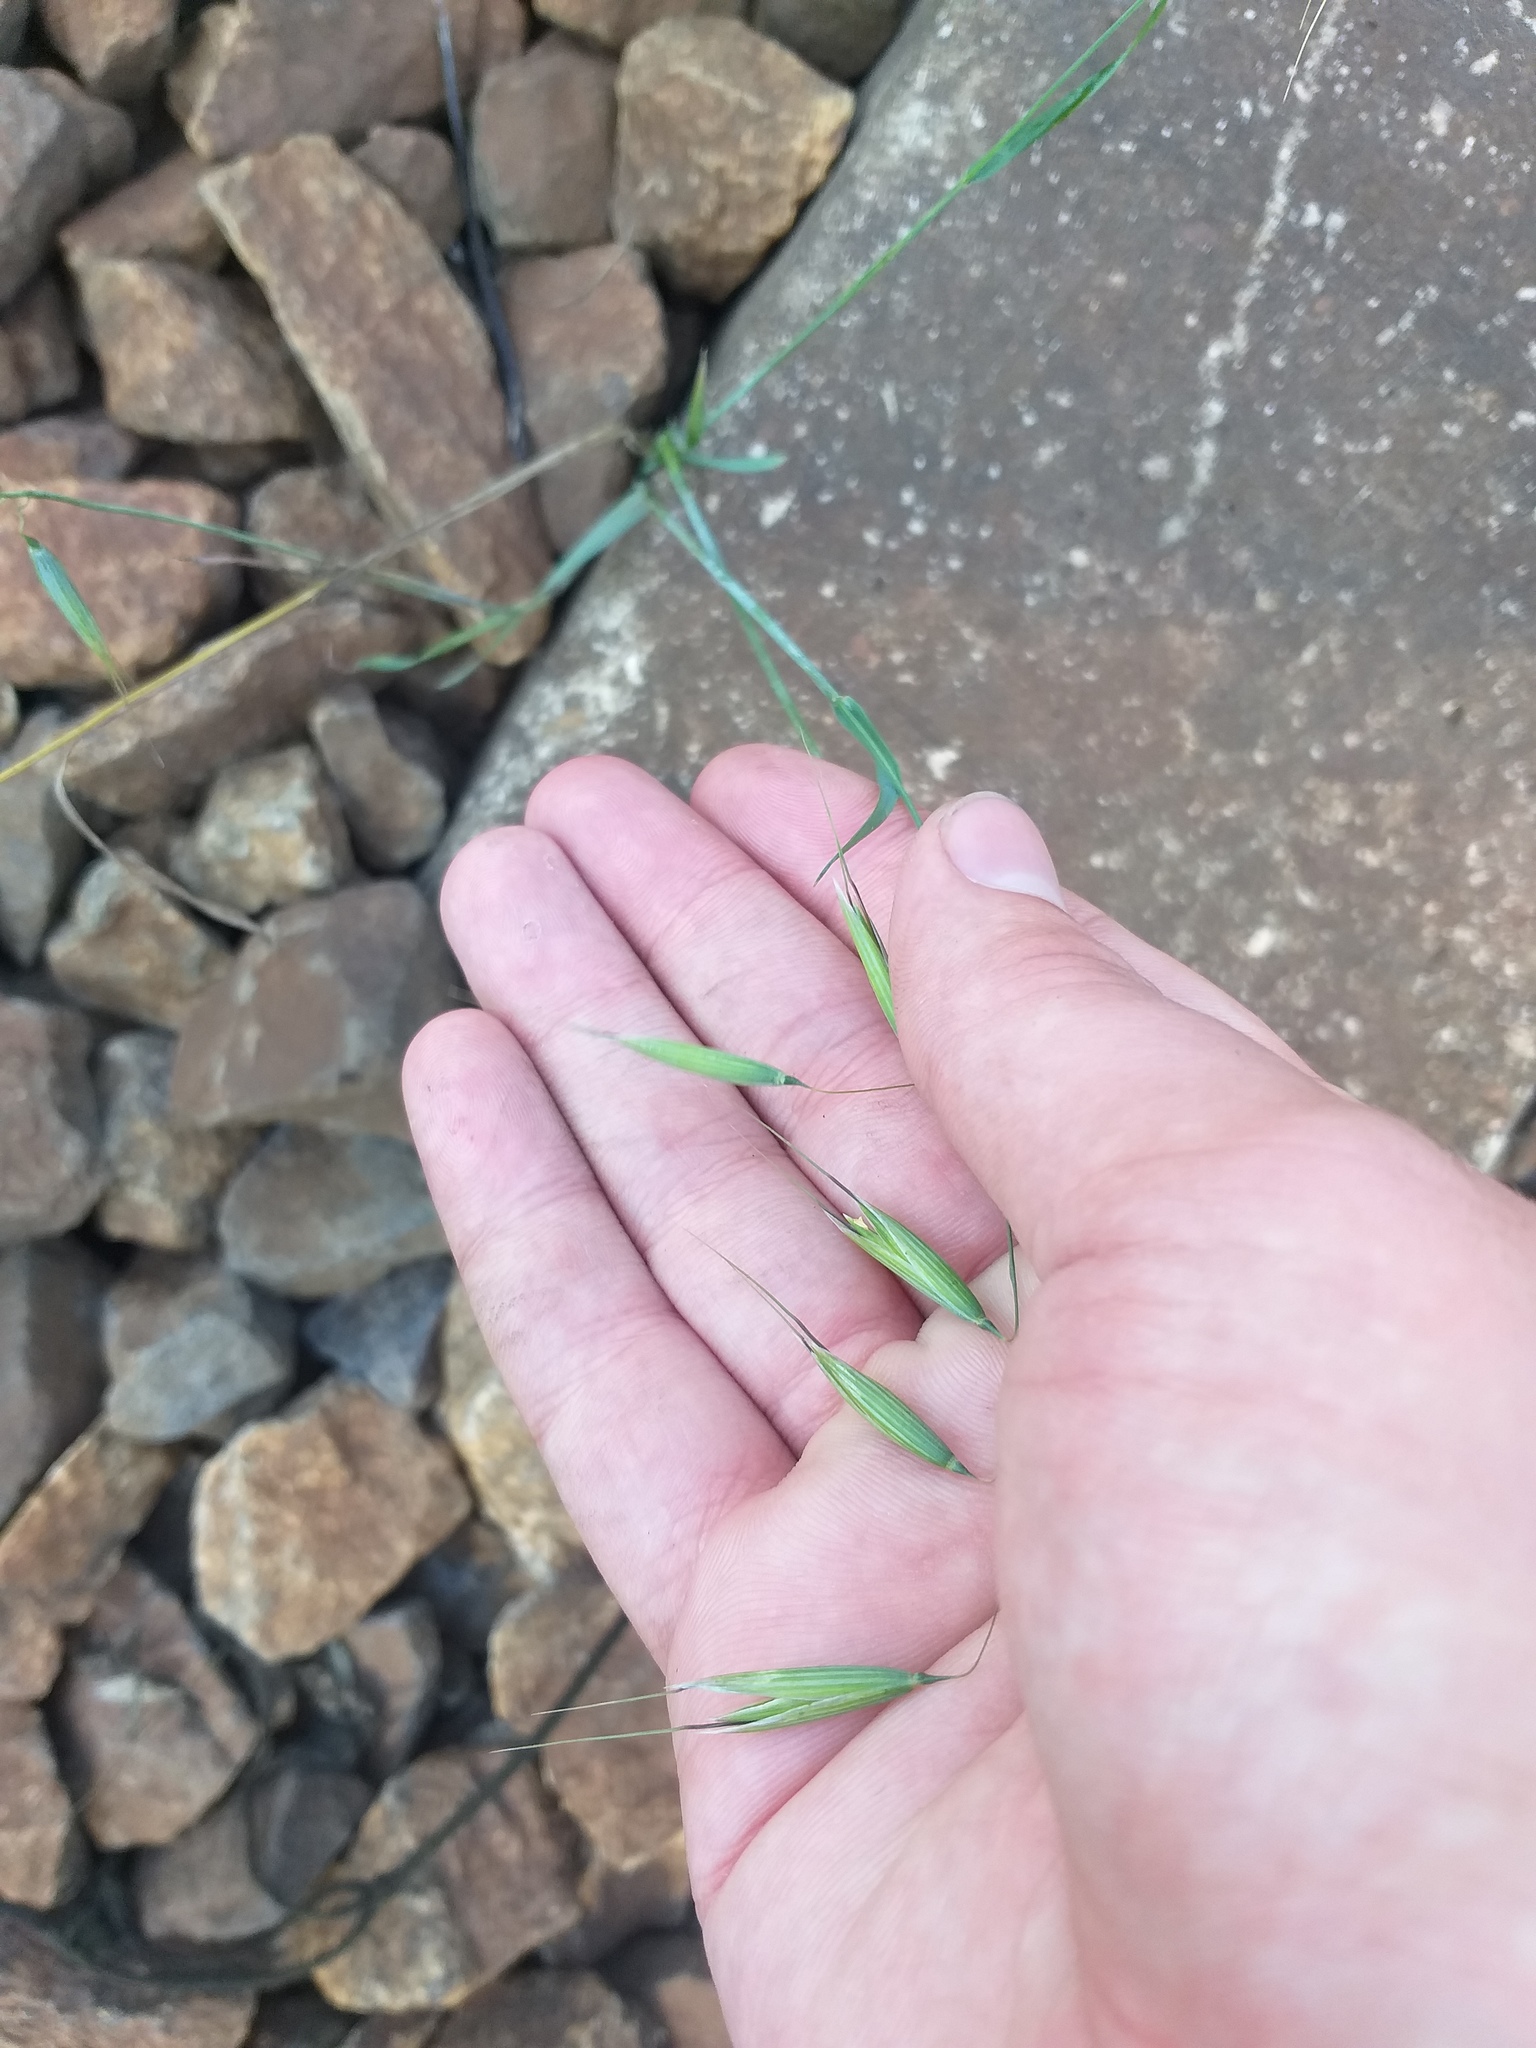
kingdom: Plantae
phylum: Tracheophyta
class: Liliopsida
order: Poales
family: Poaceae
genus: Avena
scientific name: Avena fatua
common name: Wild oat
